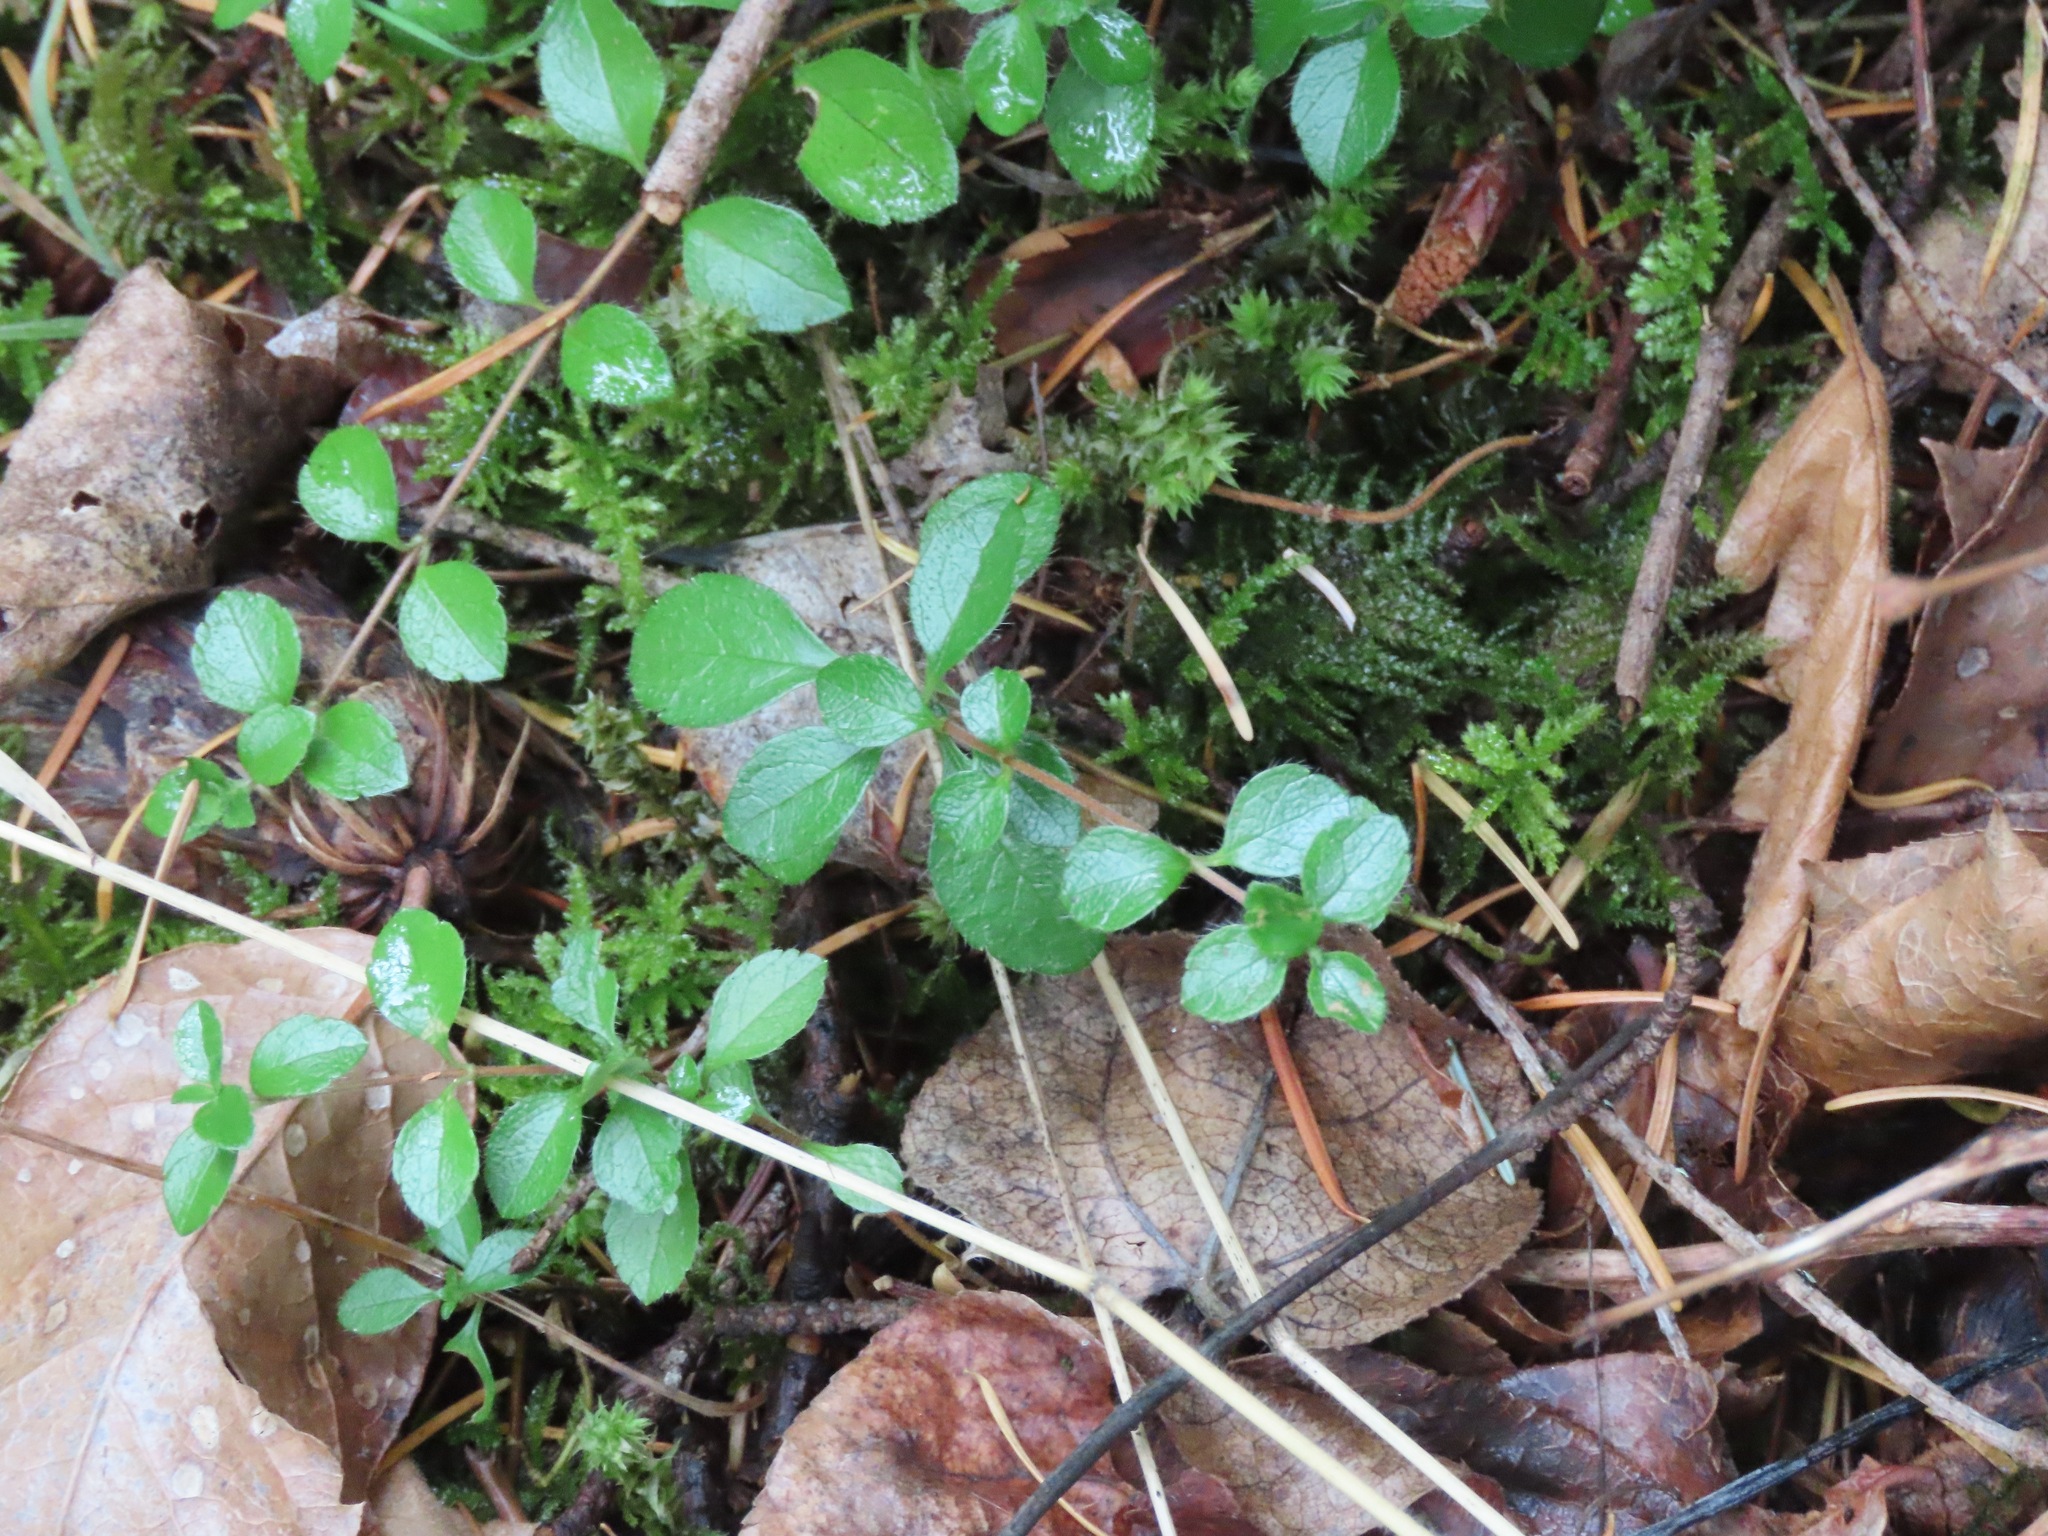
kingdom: Plantae
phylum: Tracheophyta
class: Magnoliopsida
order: Dipsacales
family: Caprifoliaceae
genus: Linnaea
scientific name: Linnaea borealis
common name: Twinflower
